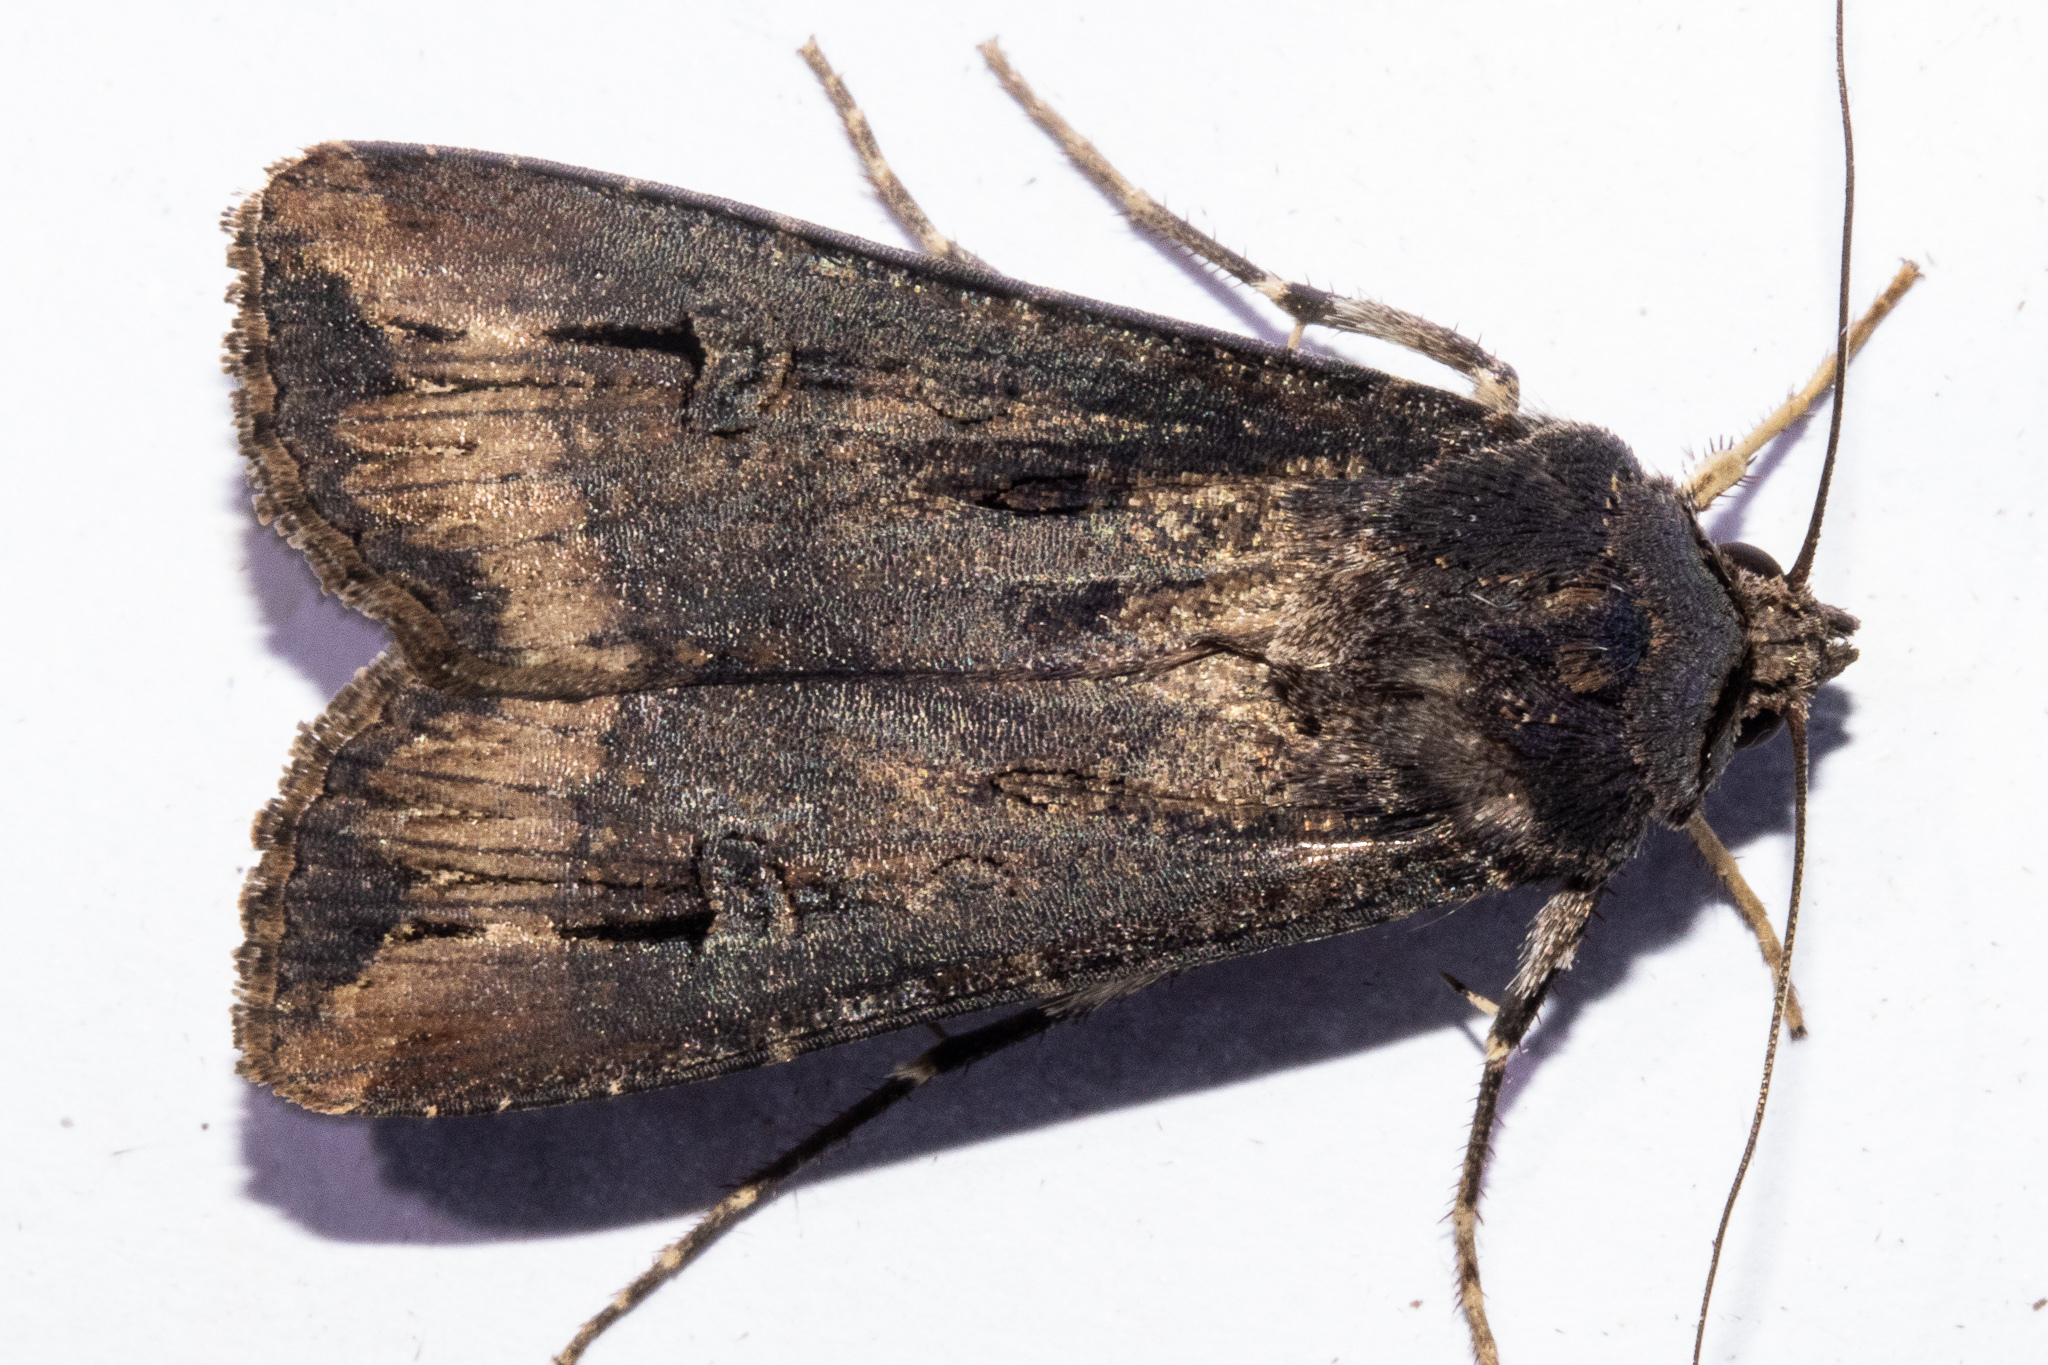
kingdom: Animalia
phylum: Arthropoda
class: Insecta
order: Lepidoptera
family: Noctuidae
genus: Agrotis
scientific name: Agrotis ipsilon
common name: Dark sword-grass
